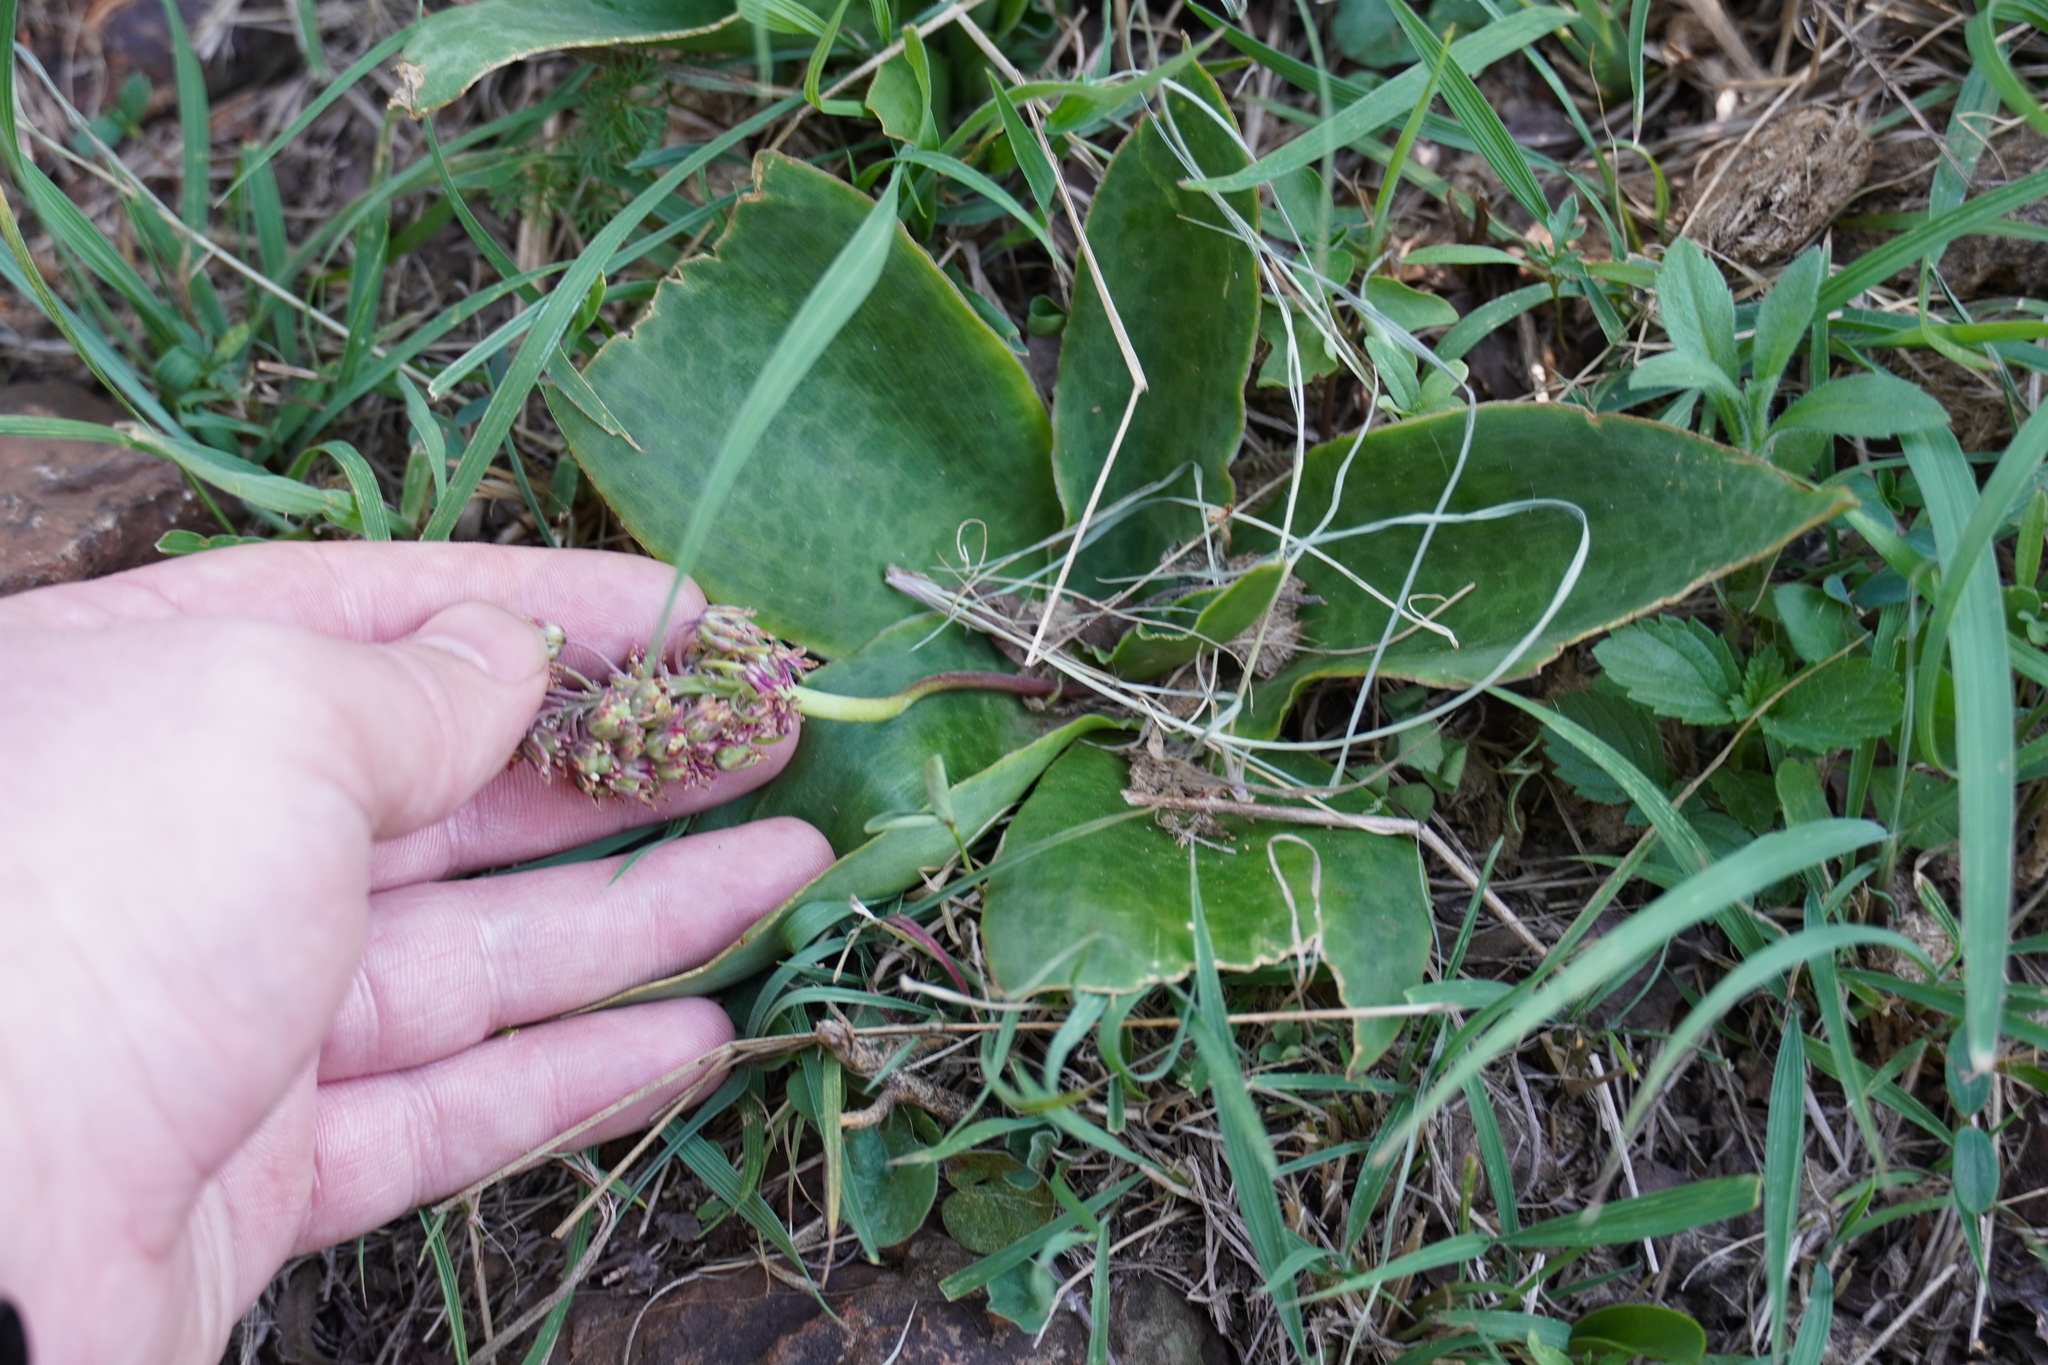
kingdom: Plantae
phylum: Tracheophyta
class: Liliopsida
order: Asparagales
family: Asparagaceae
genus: Ledebouria
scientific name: Ledebouria ovatifolia
